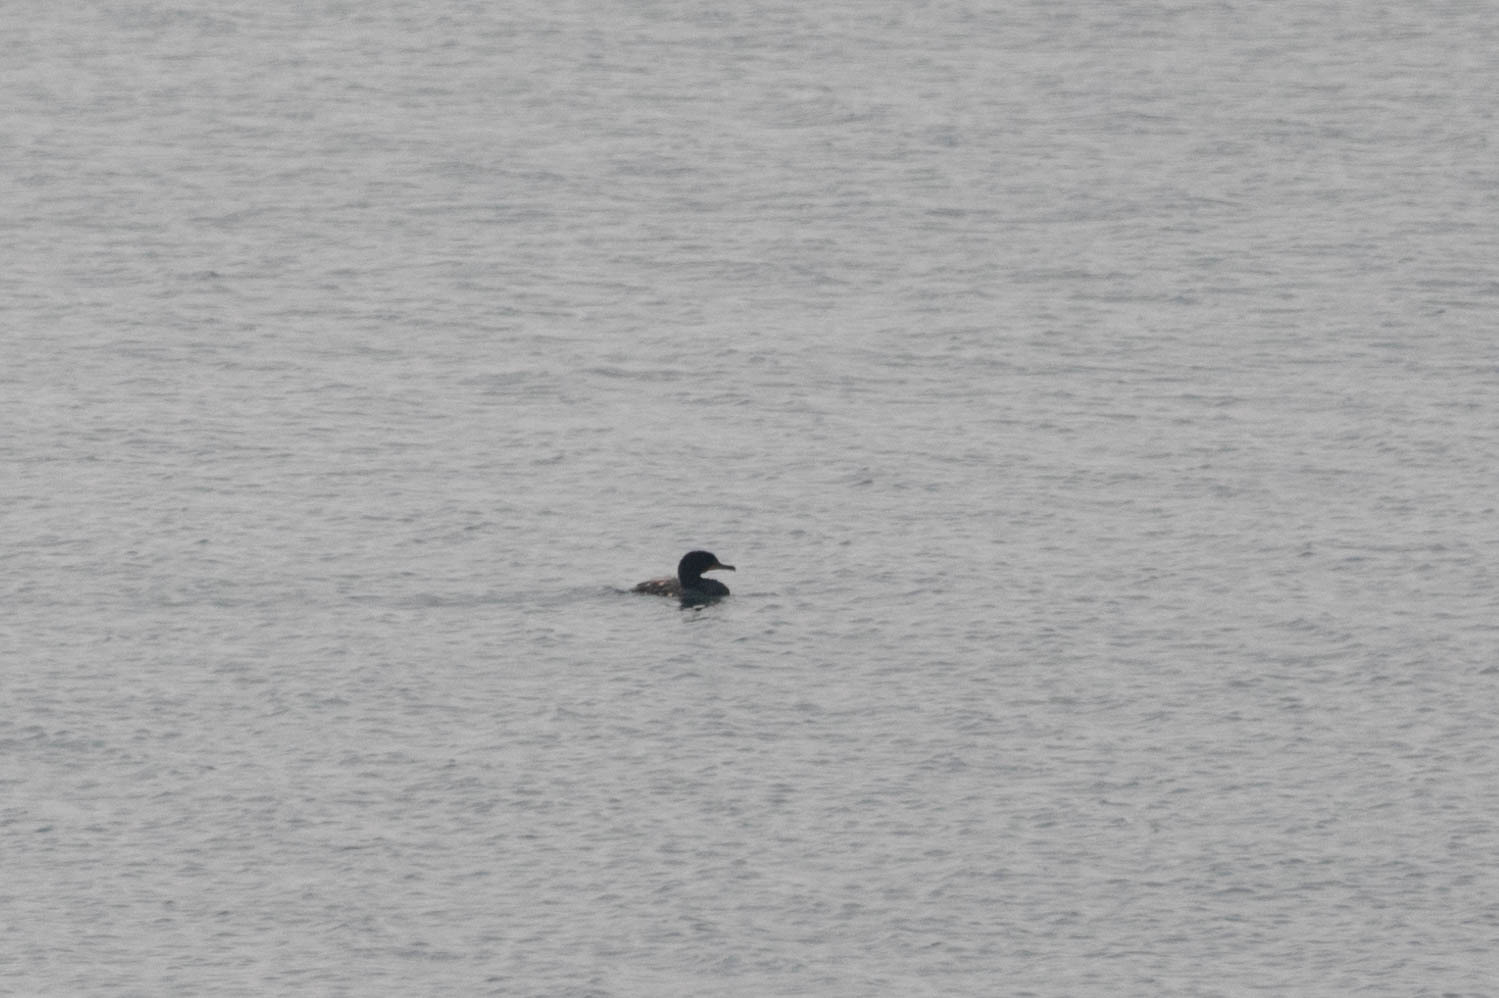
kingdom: Animalia
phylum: Chordata
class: Aves
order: Suliformes
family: Phalacrocoracidae
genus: Phalacrocorax
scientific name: Phalacrocorax auritus
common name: Double-crested cormorant
